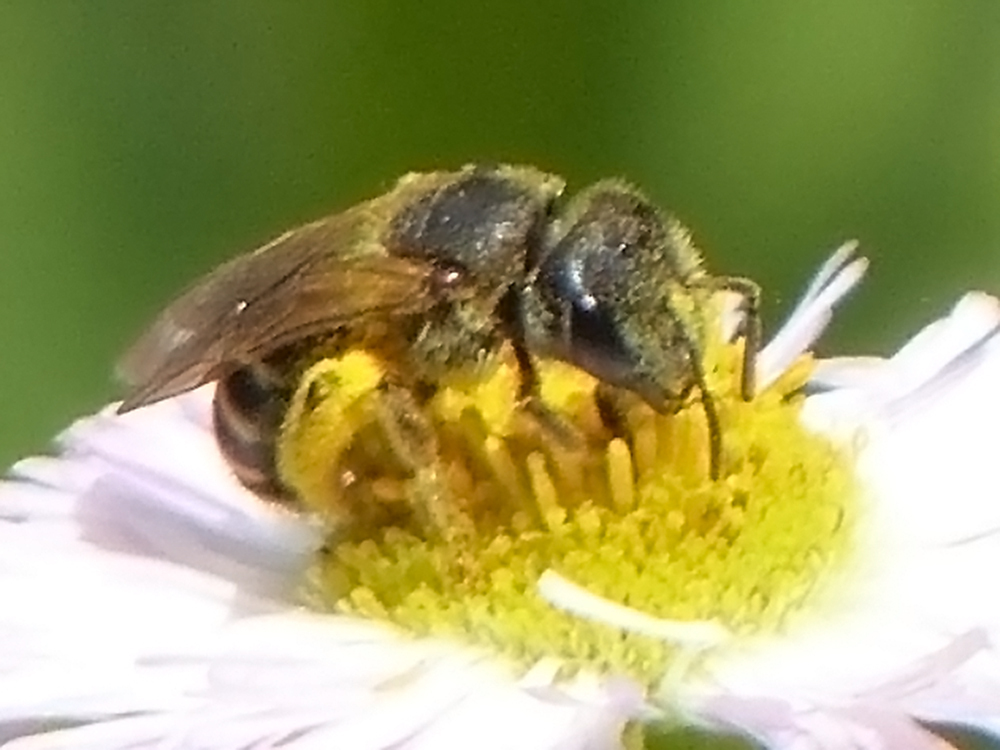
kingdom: Animalia
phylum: Arthropoda
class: Insecta
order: Hymenoptera
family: Halictidae
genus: Halictus
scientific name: Halictus ligatus
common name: Ligated furrow bee
